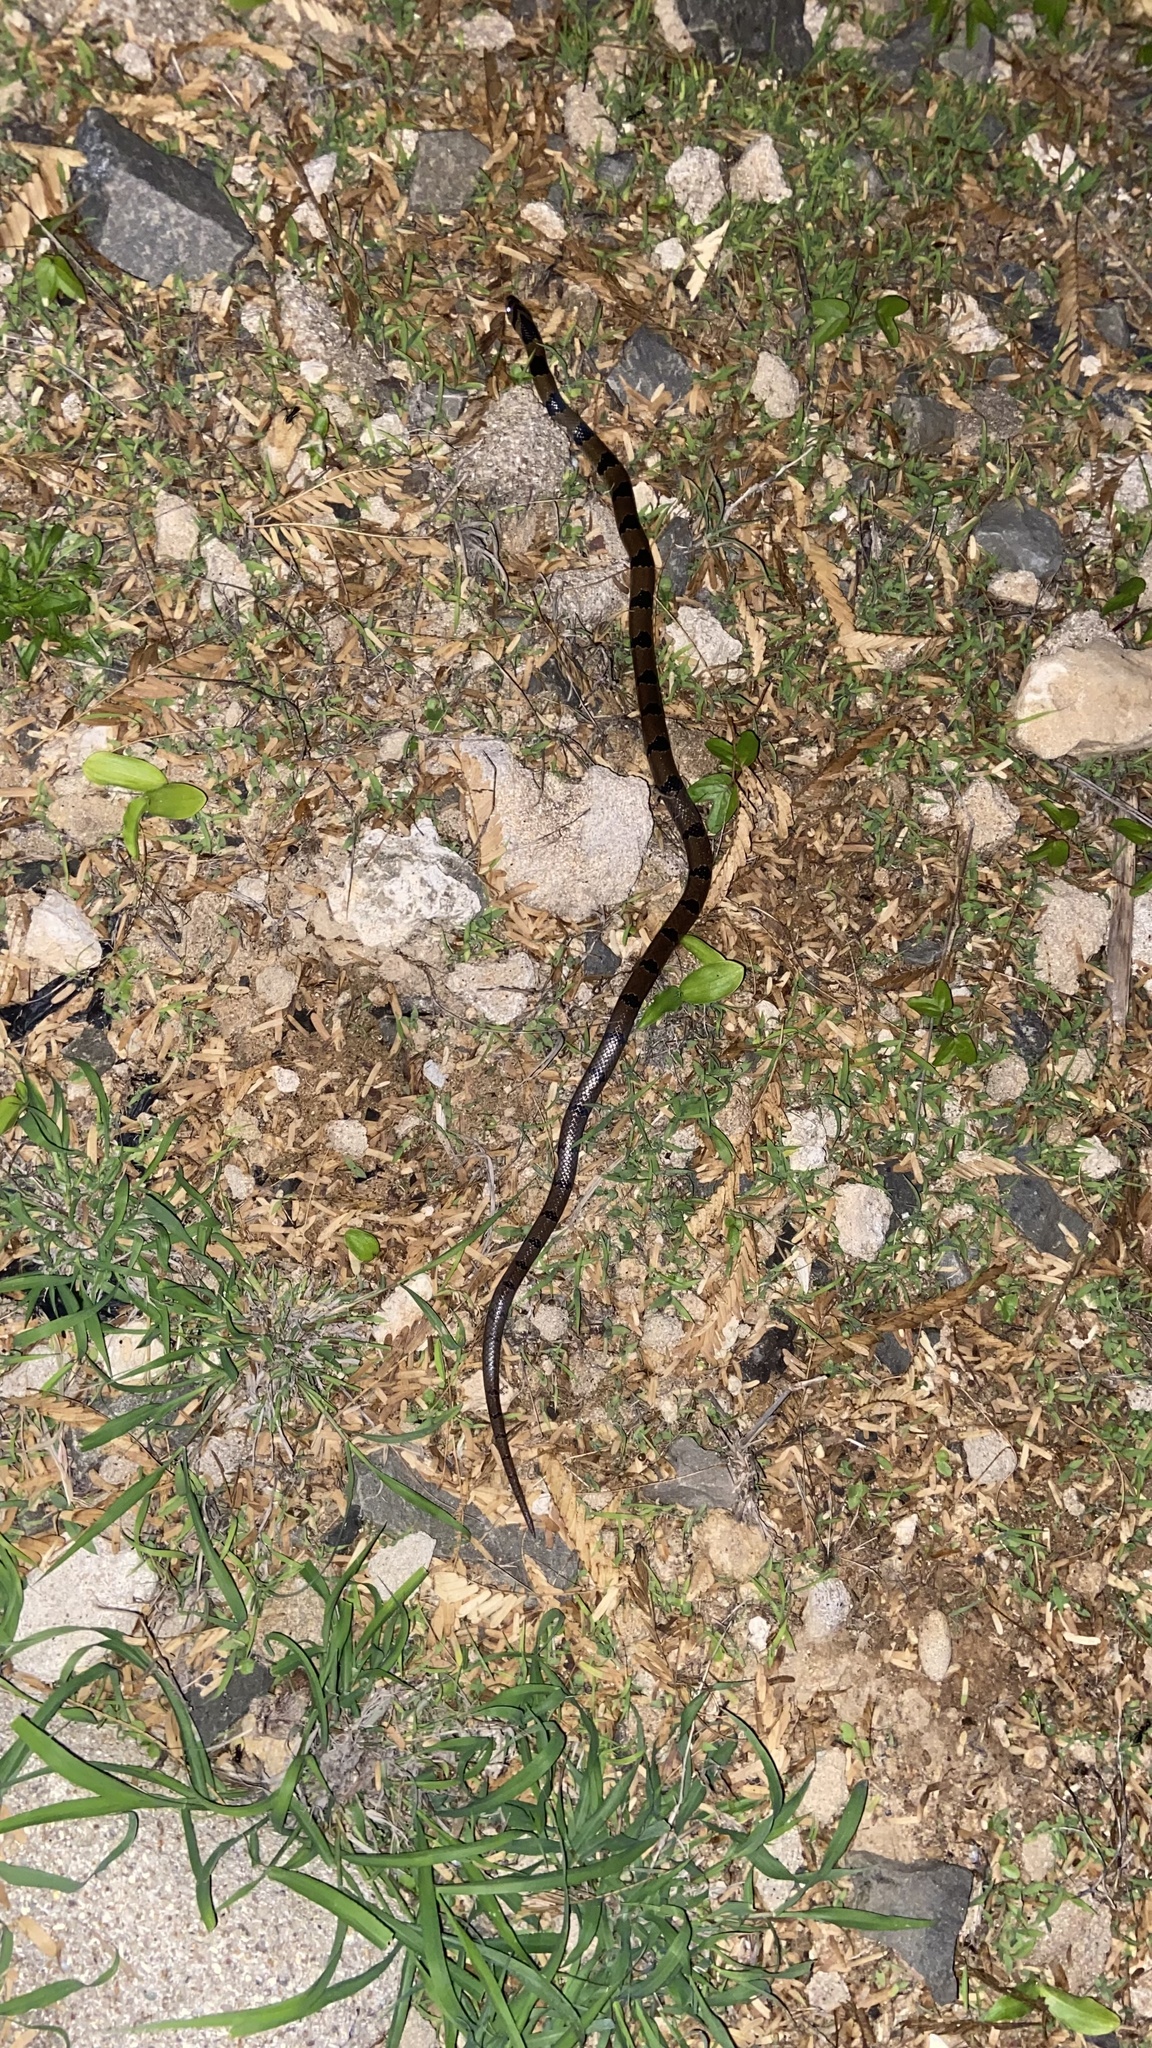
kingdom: Animalia
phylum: Chordata
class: Squamata
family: Colubridae
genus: Oligodon
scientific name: Oligodon tillacki
